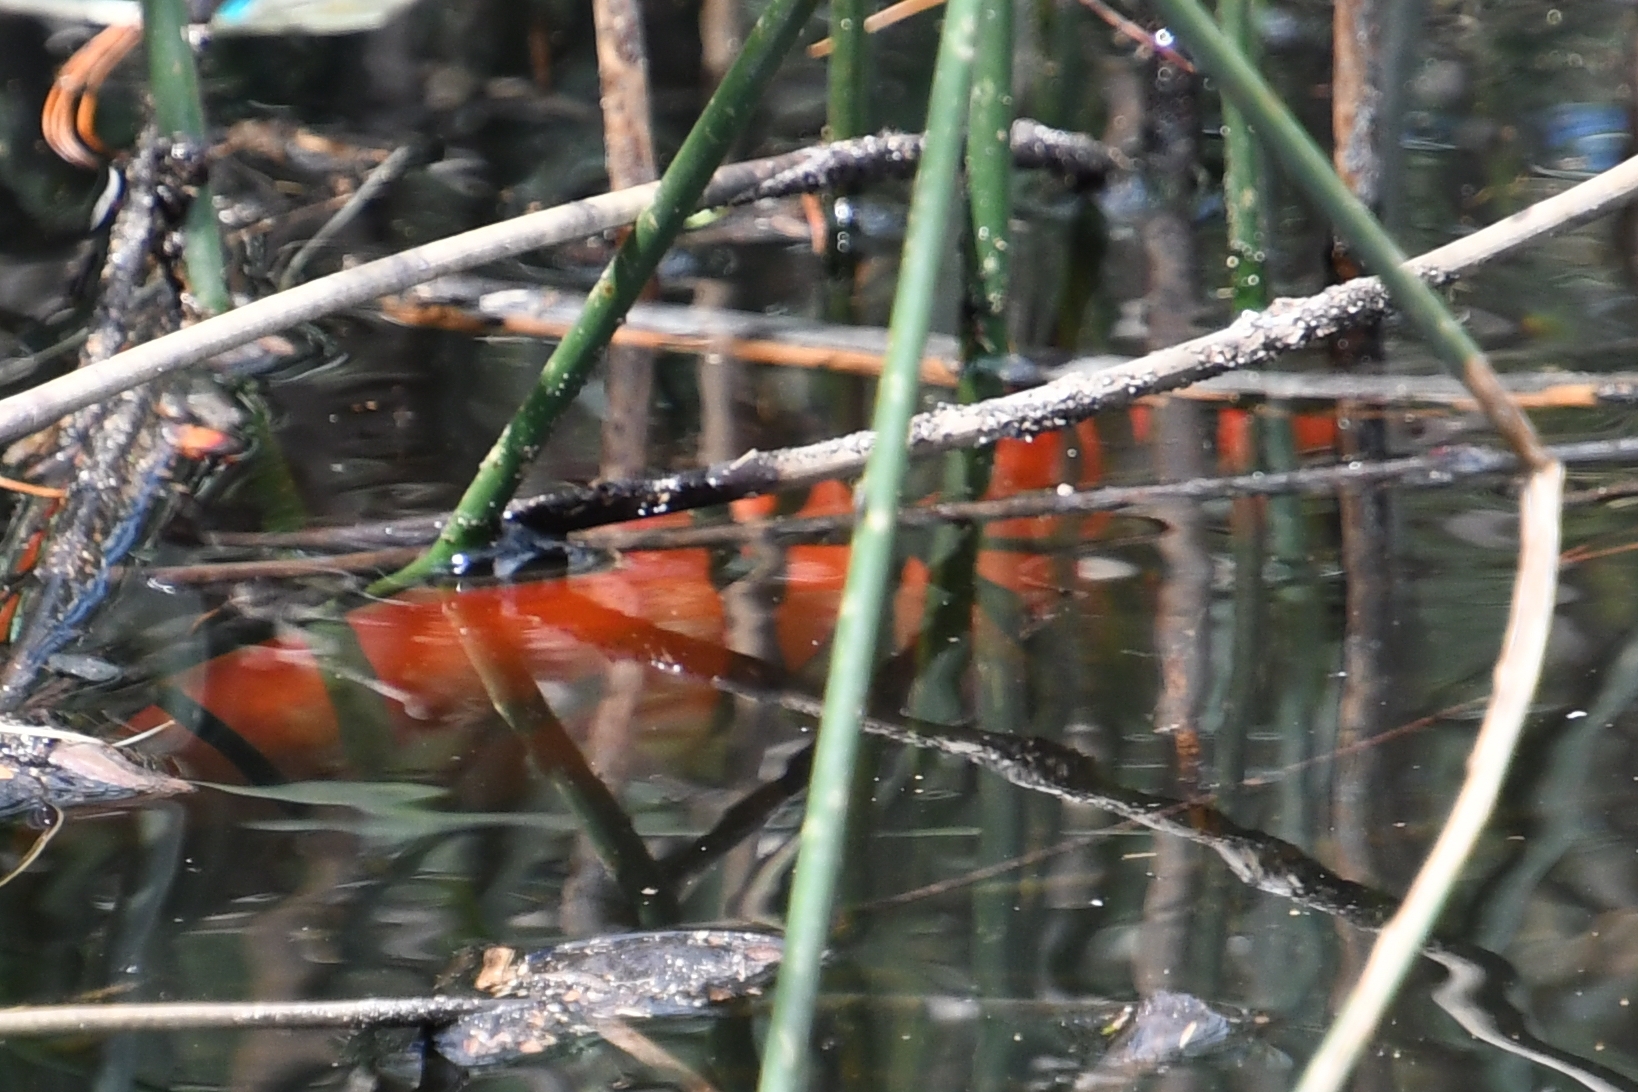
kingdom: Animalia
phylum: Chordata
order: Cypriniformes
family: Cyprinidae
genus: Carassius
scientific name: Carassius auratus
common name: Goldfish
